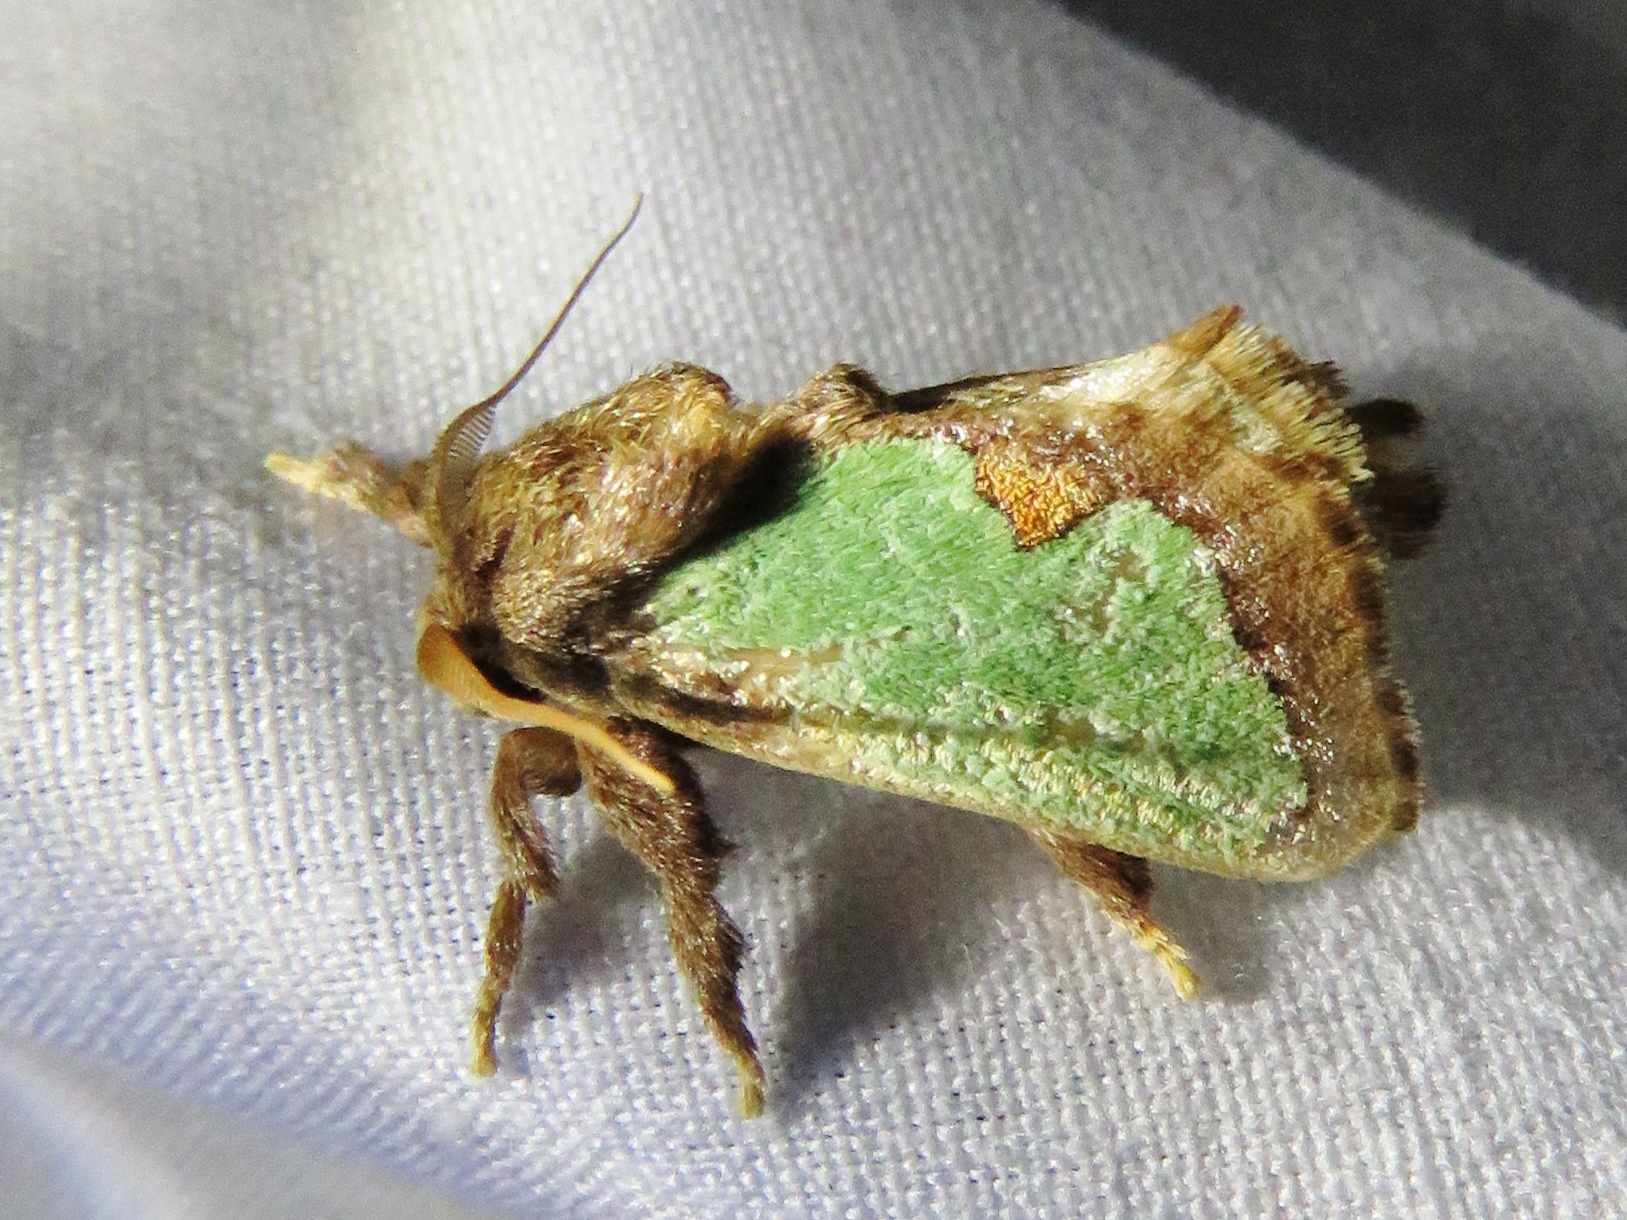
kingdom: Animalia
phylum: Arthropoda
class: Insecta
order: Lepidoptera
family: Limacodidae
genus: Euclea
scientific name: Euclea incisa
